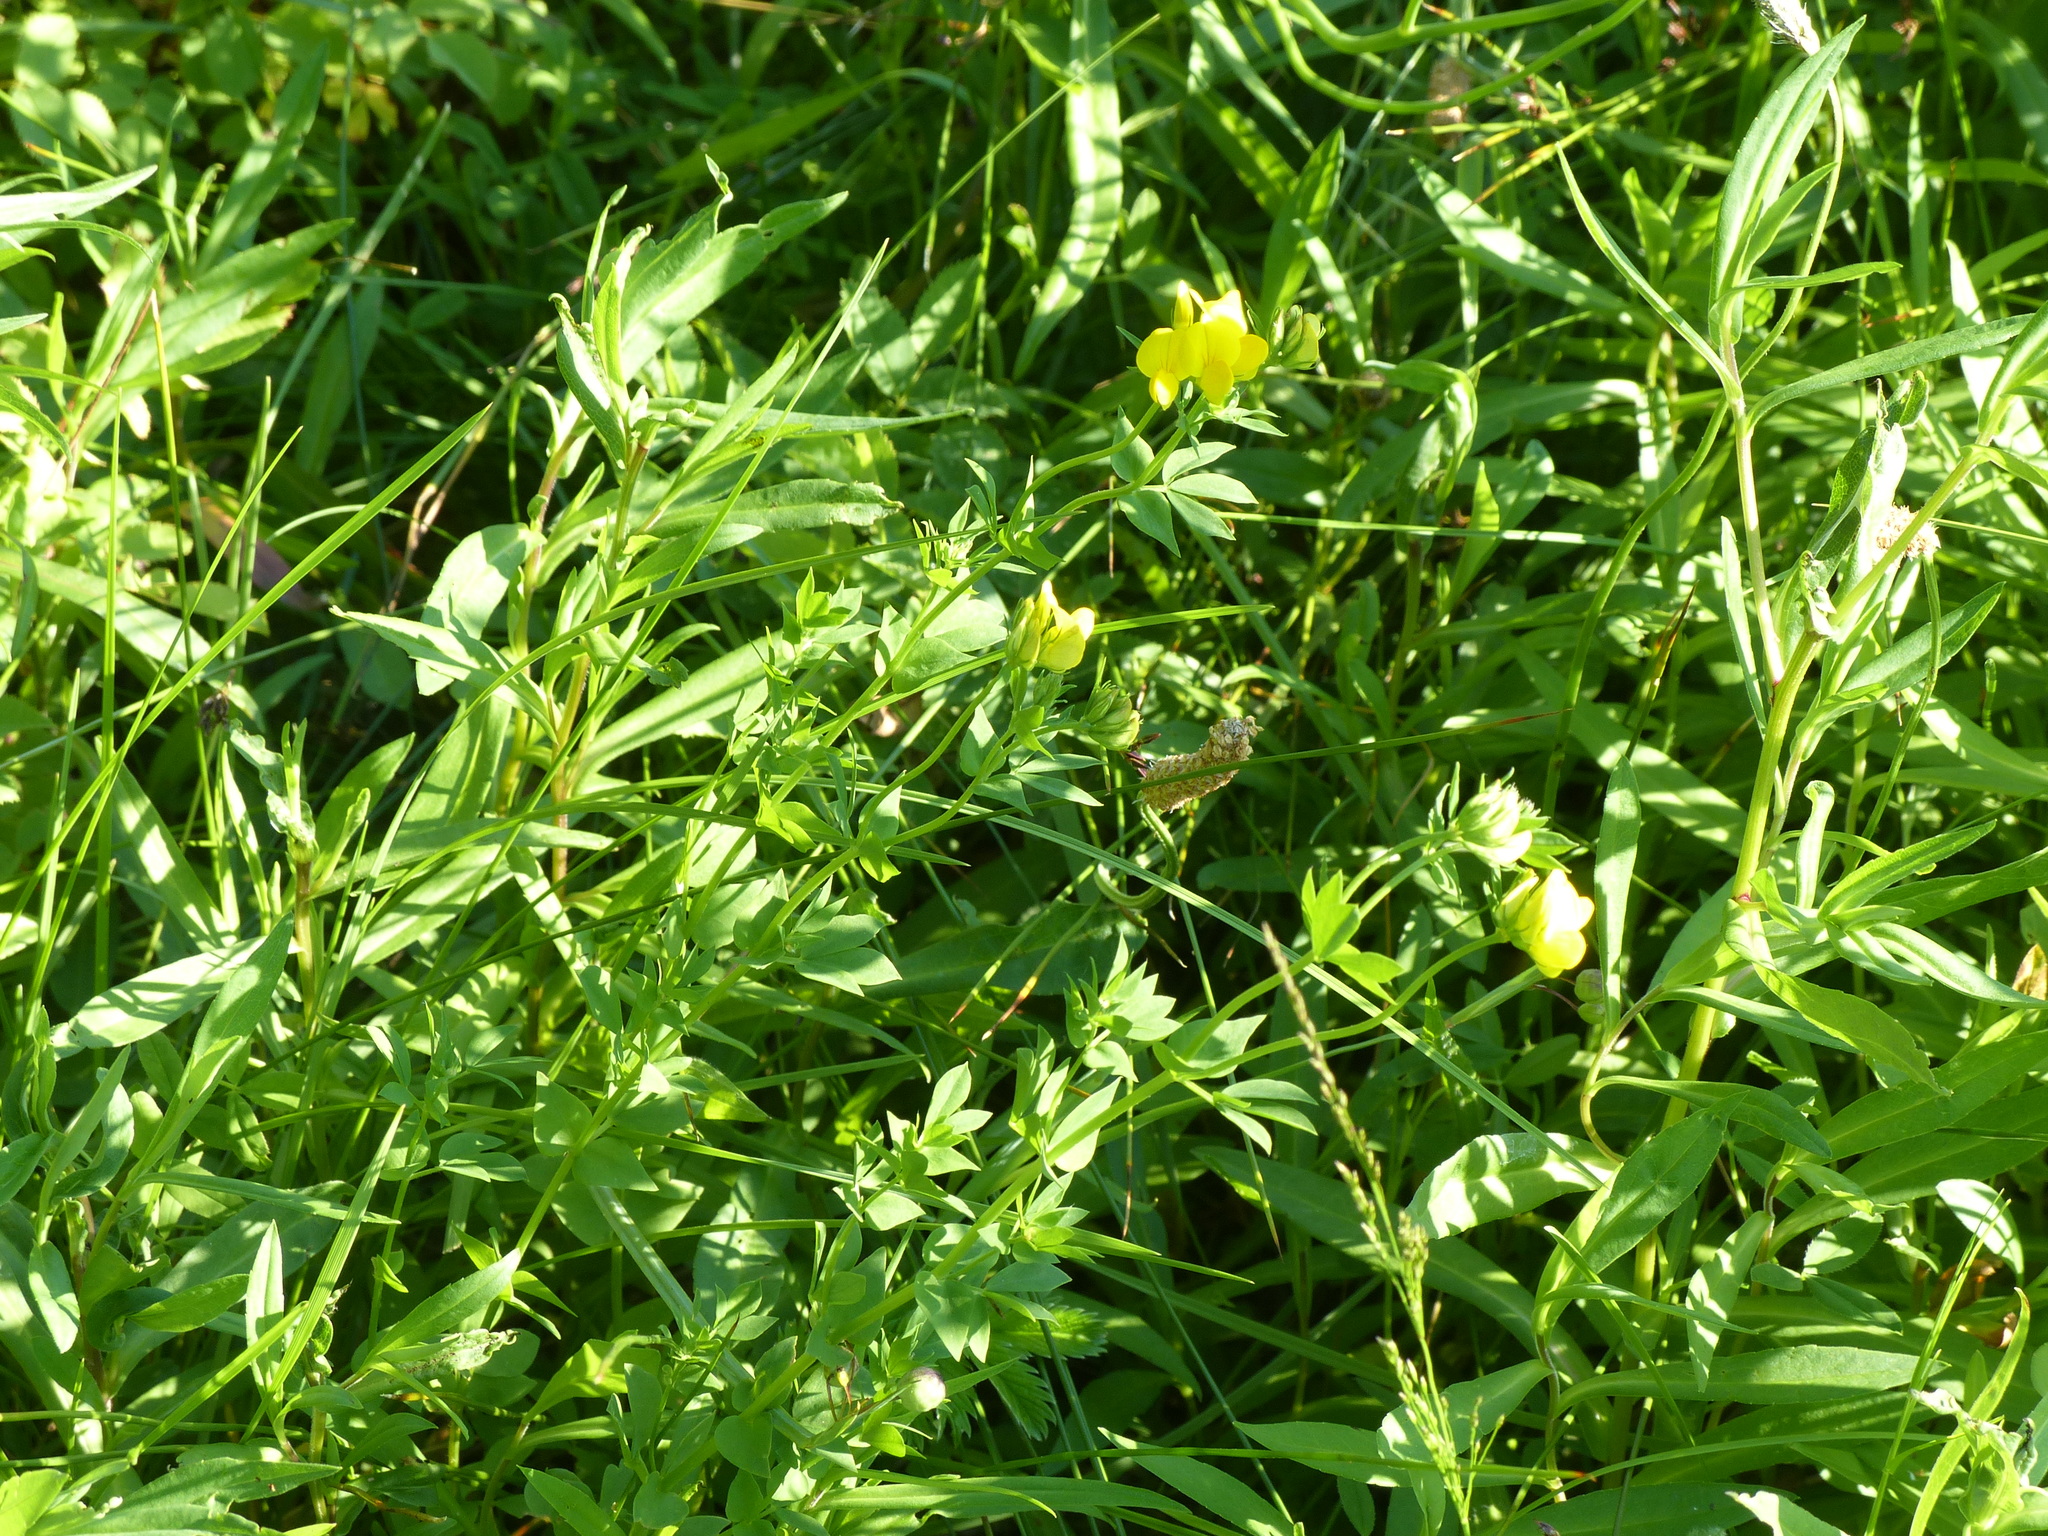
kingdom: Plantae
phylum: Tracheophyta
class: Magnoliopsida
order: Fabales
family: Fabaceae
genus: Lotus
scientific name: Lotus corniculatus
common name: Common bird's-foot-trefoil
